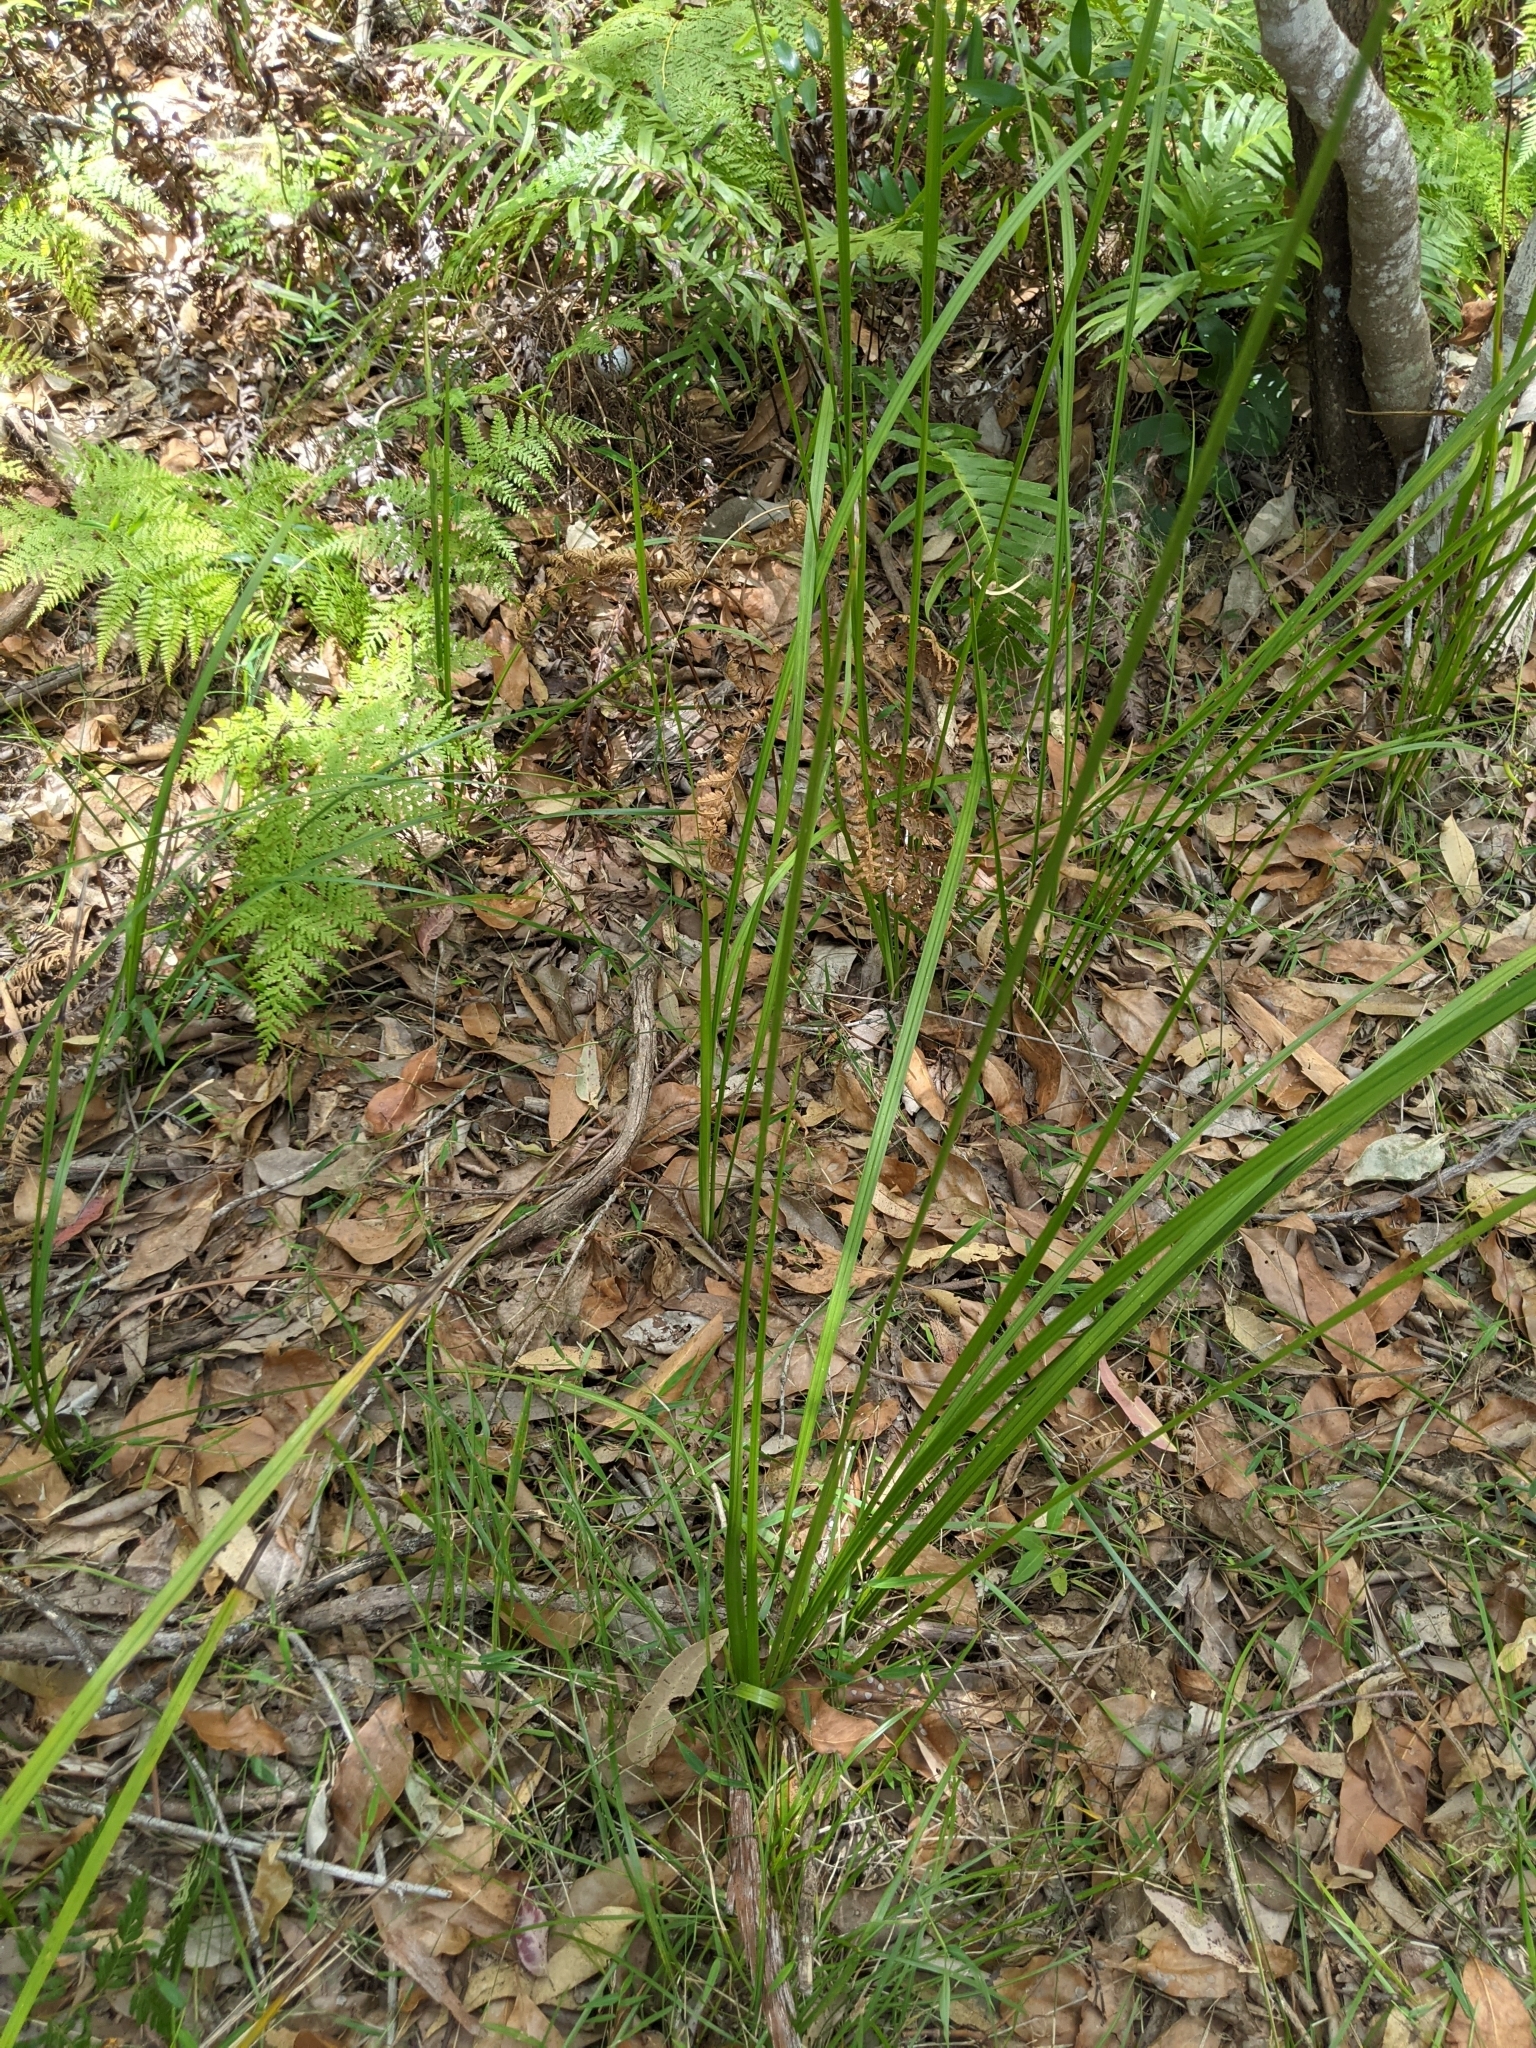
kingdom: Plantae
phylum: Tracheophyta
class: Liliopsida
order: Alismatales
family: Araceae
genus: Gymnostachys
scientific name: Gymnostachys anceps
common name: Settler's-flax
